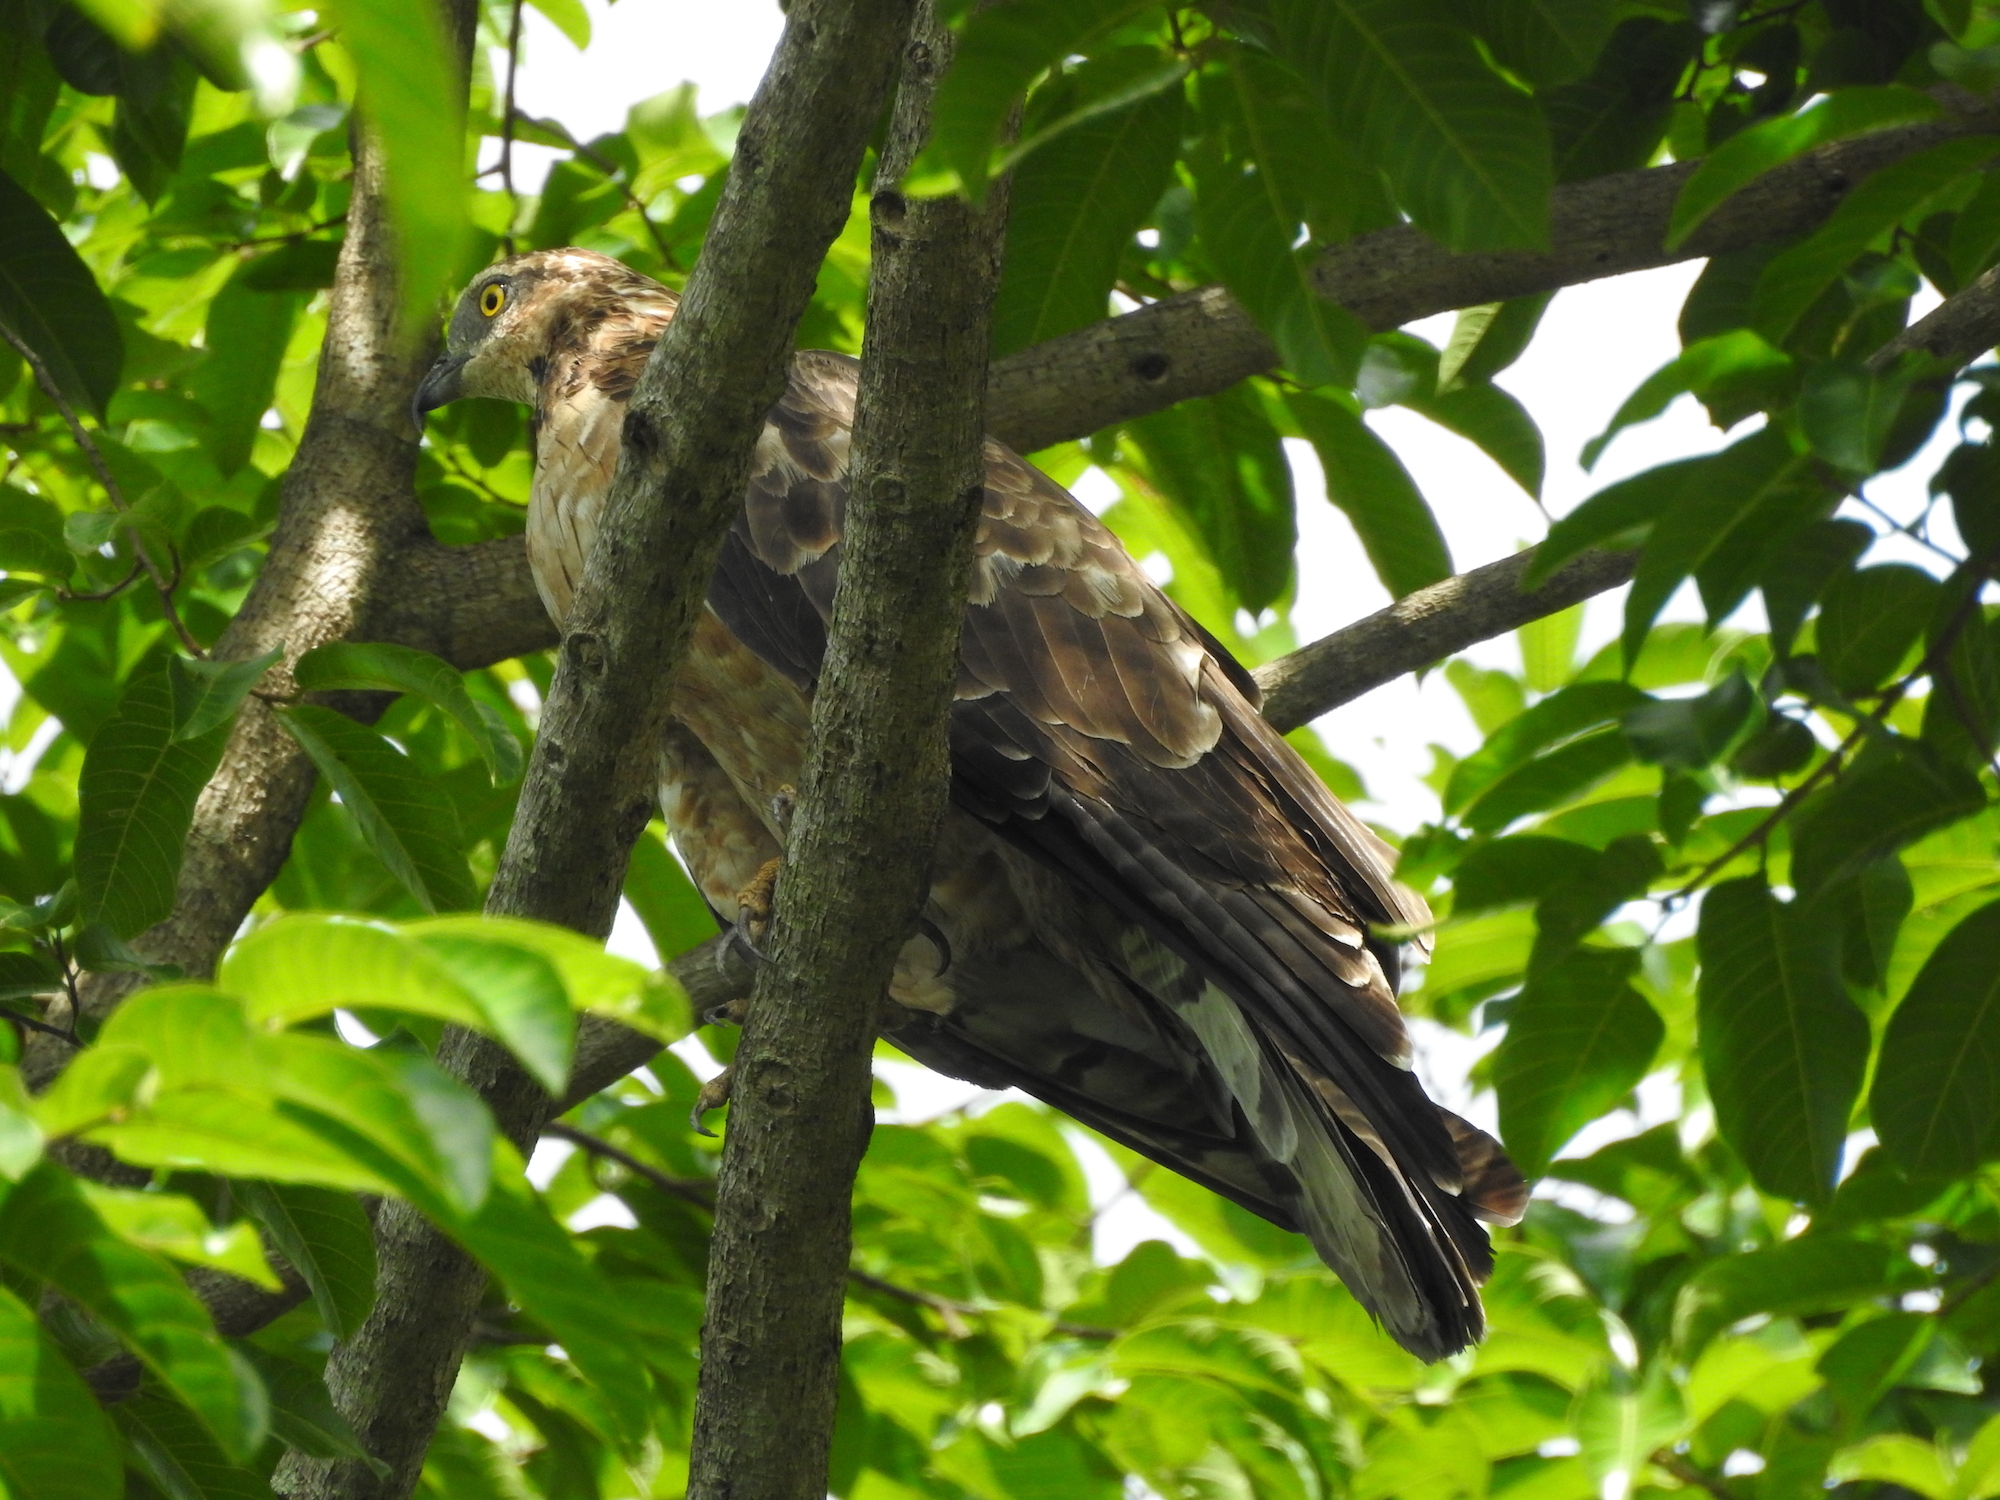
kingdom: Animalia
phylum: Chordata
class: Aves
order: Accipitriformes
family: Accipitridae
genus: Pernis
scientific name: Pernis ptilorhynchus
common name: Crested honey buzzard
